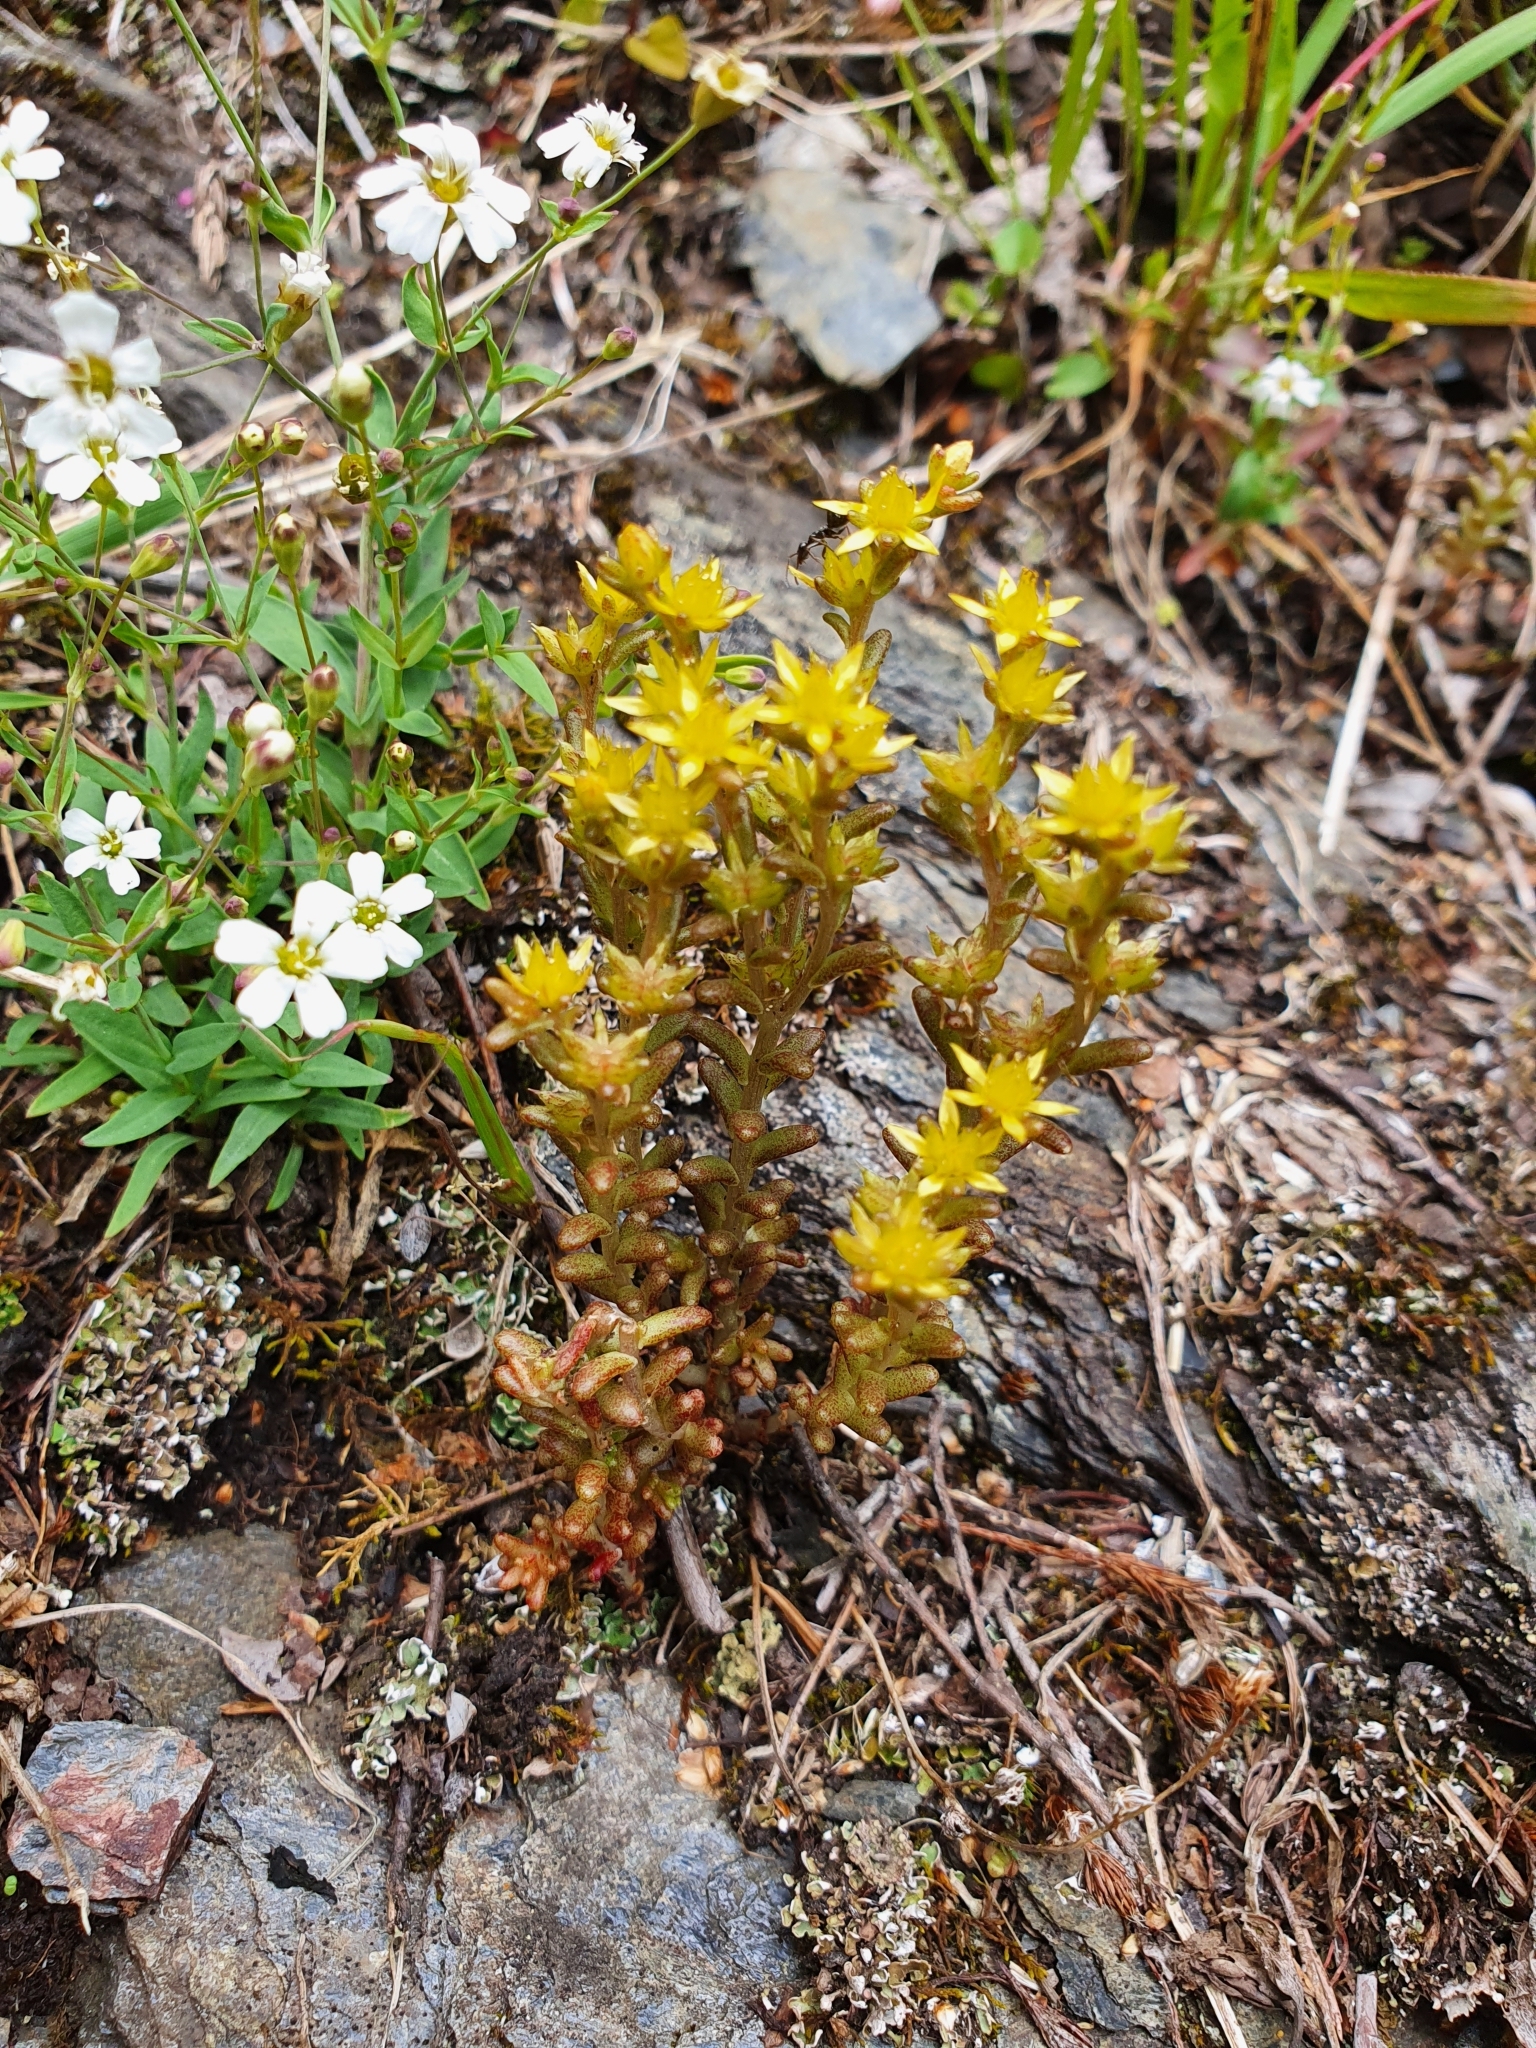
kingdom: Plantae
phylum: Tracheophyta
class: Magnoliopsida
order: Saxifragales
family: Crassulaceae
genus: Sedum
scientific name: Sedum annuum
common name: Annual stonecrop
